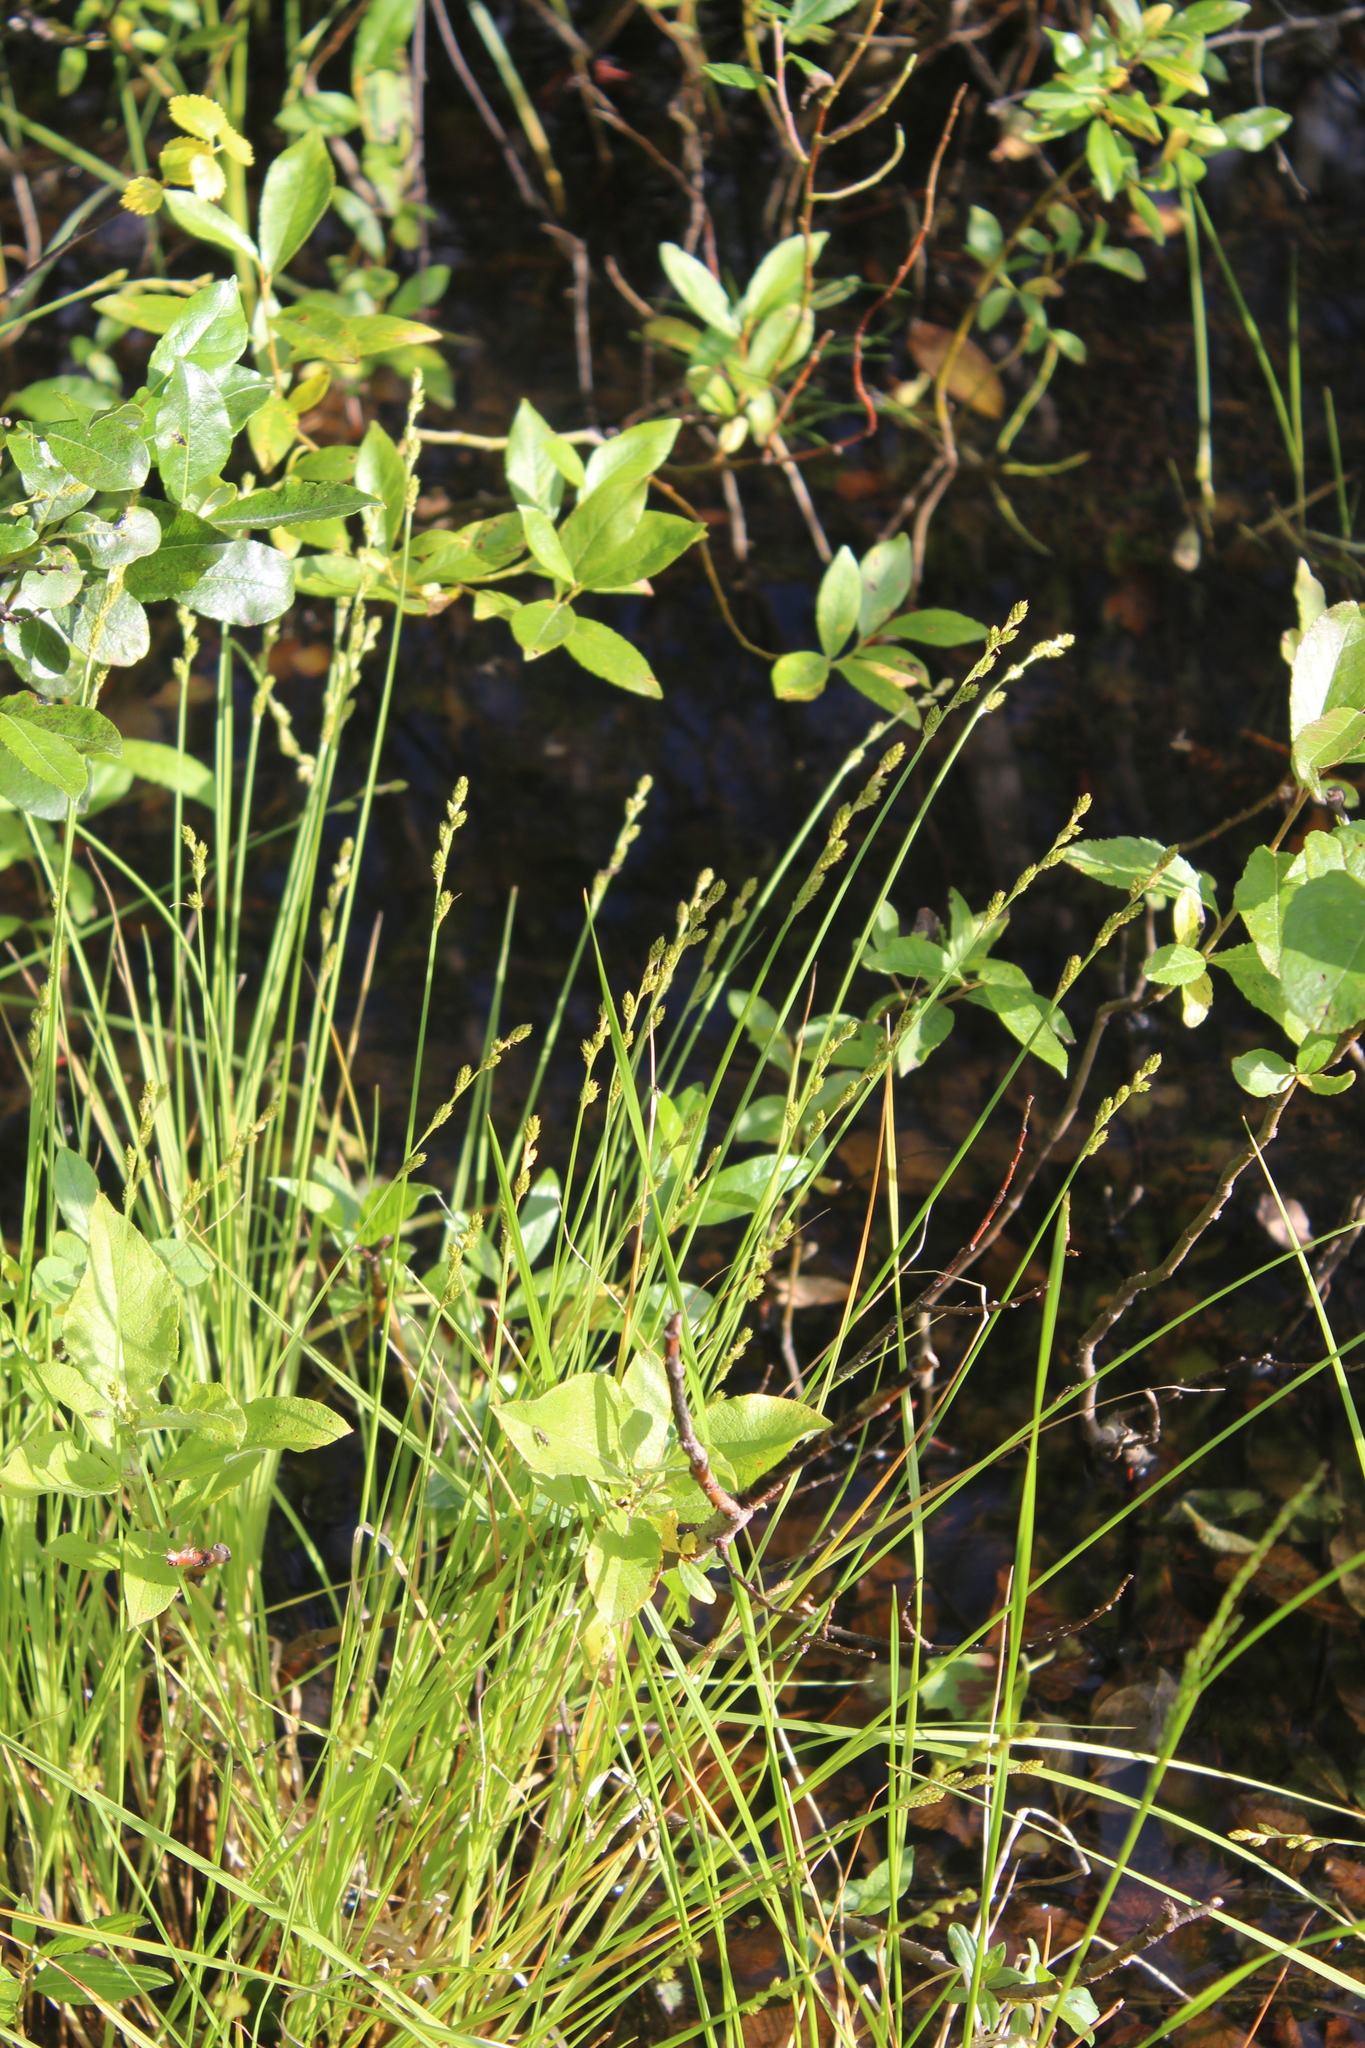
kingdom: Plantae
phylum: Tracheophyta
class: Liliopsida
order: Poales
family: Cyperaceae
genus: Carex
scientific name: Carex canescens
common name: White sedge
